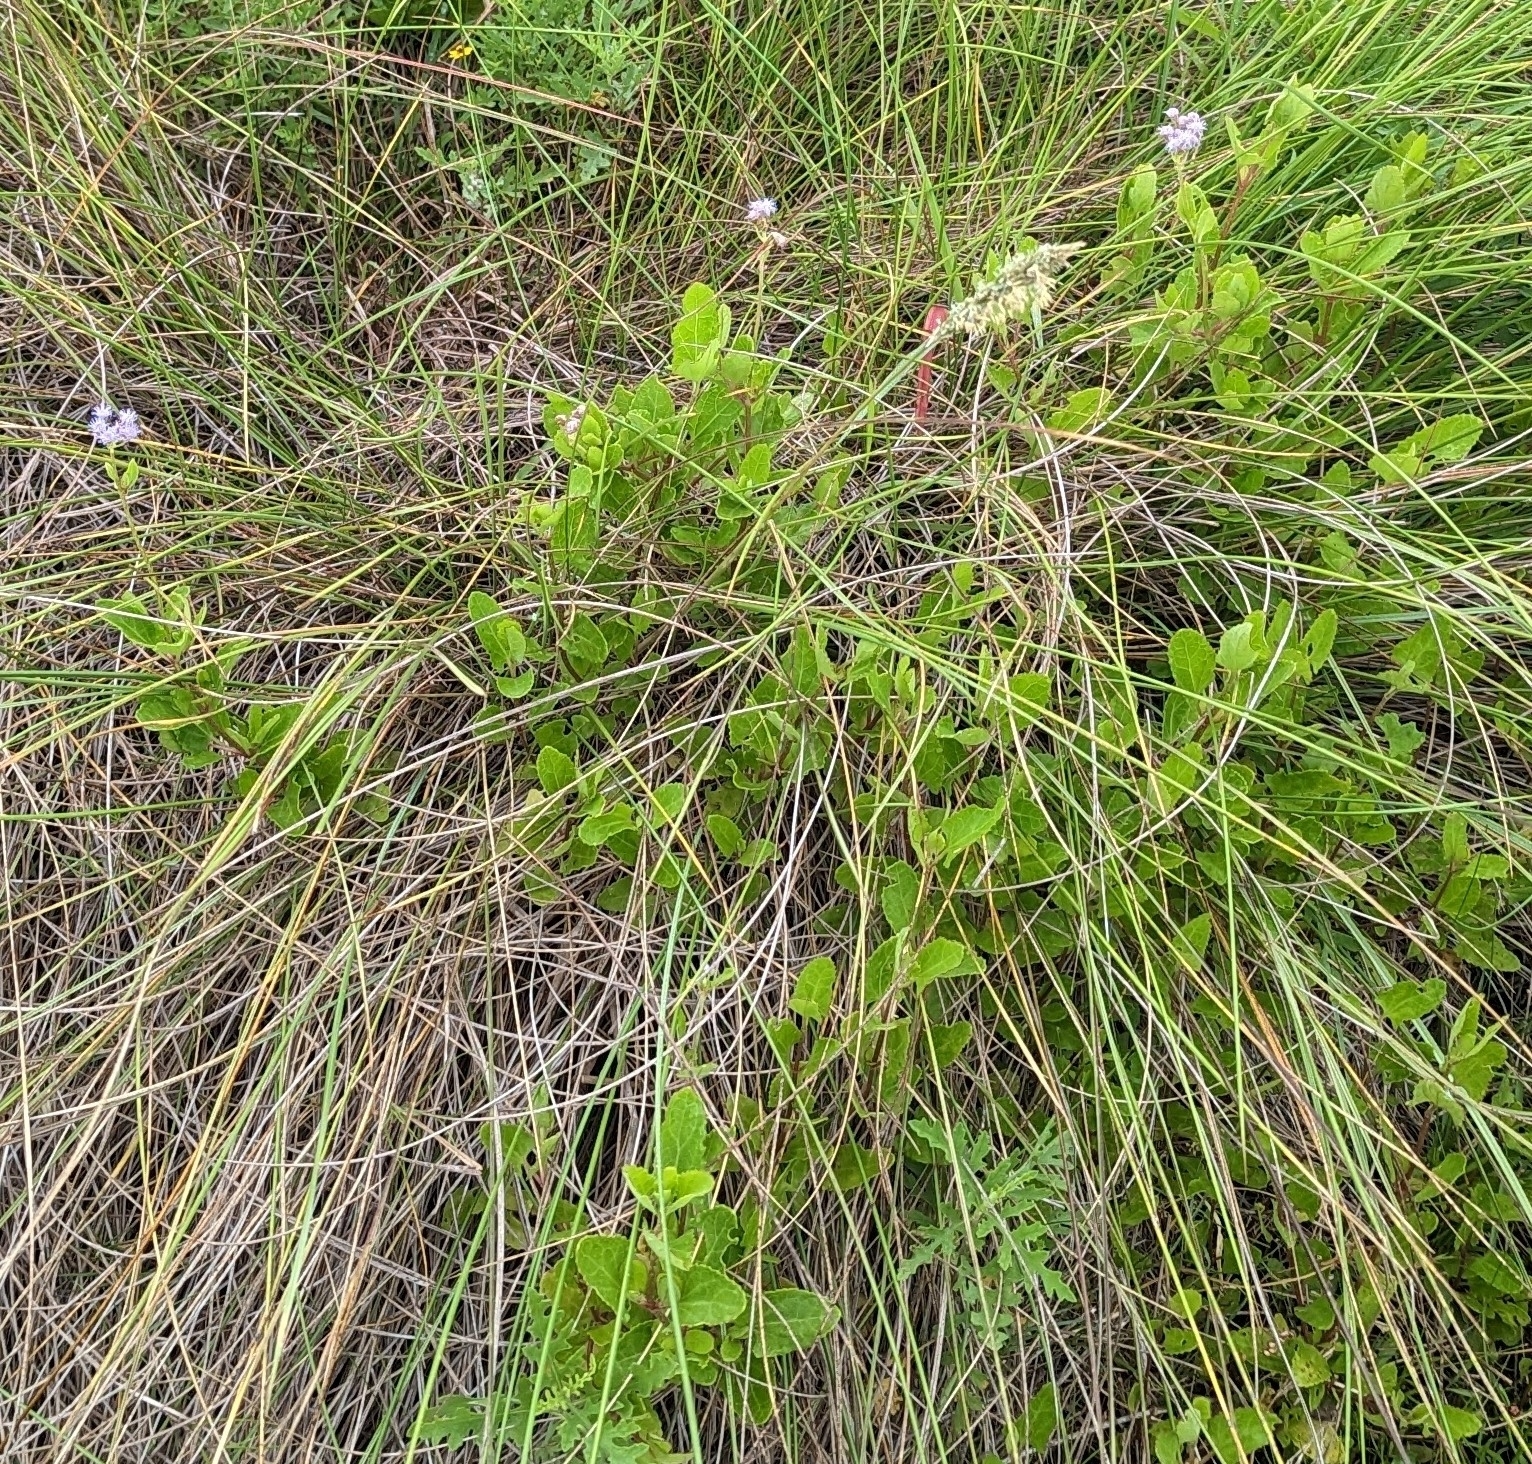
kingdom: Plantae
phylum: Tracheophyta
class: Magnoliopsida
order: Asterales
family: Asteraceae
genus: Conoclinium
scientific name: Conoclinium betonicifolium
